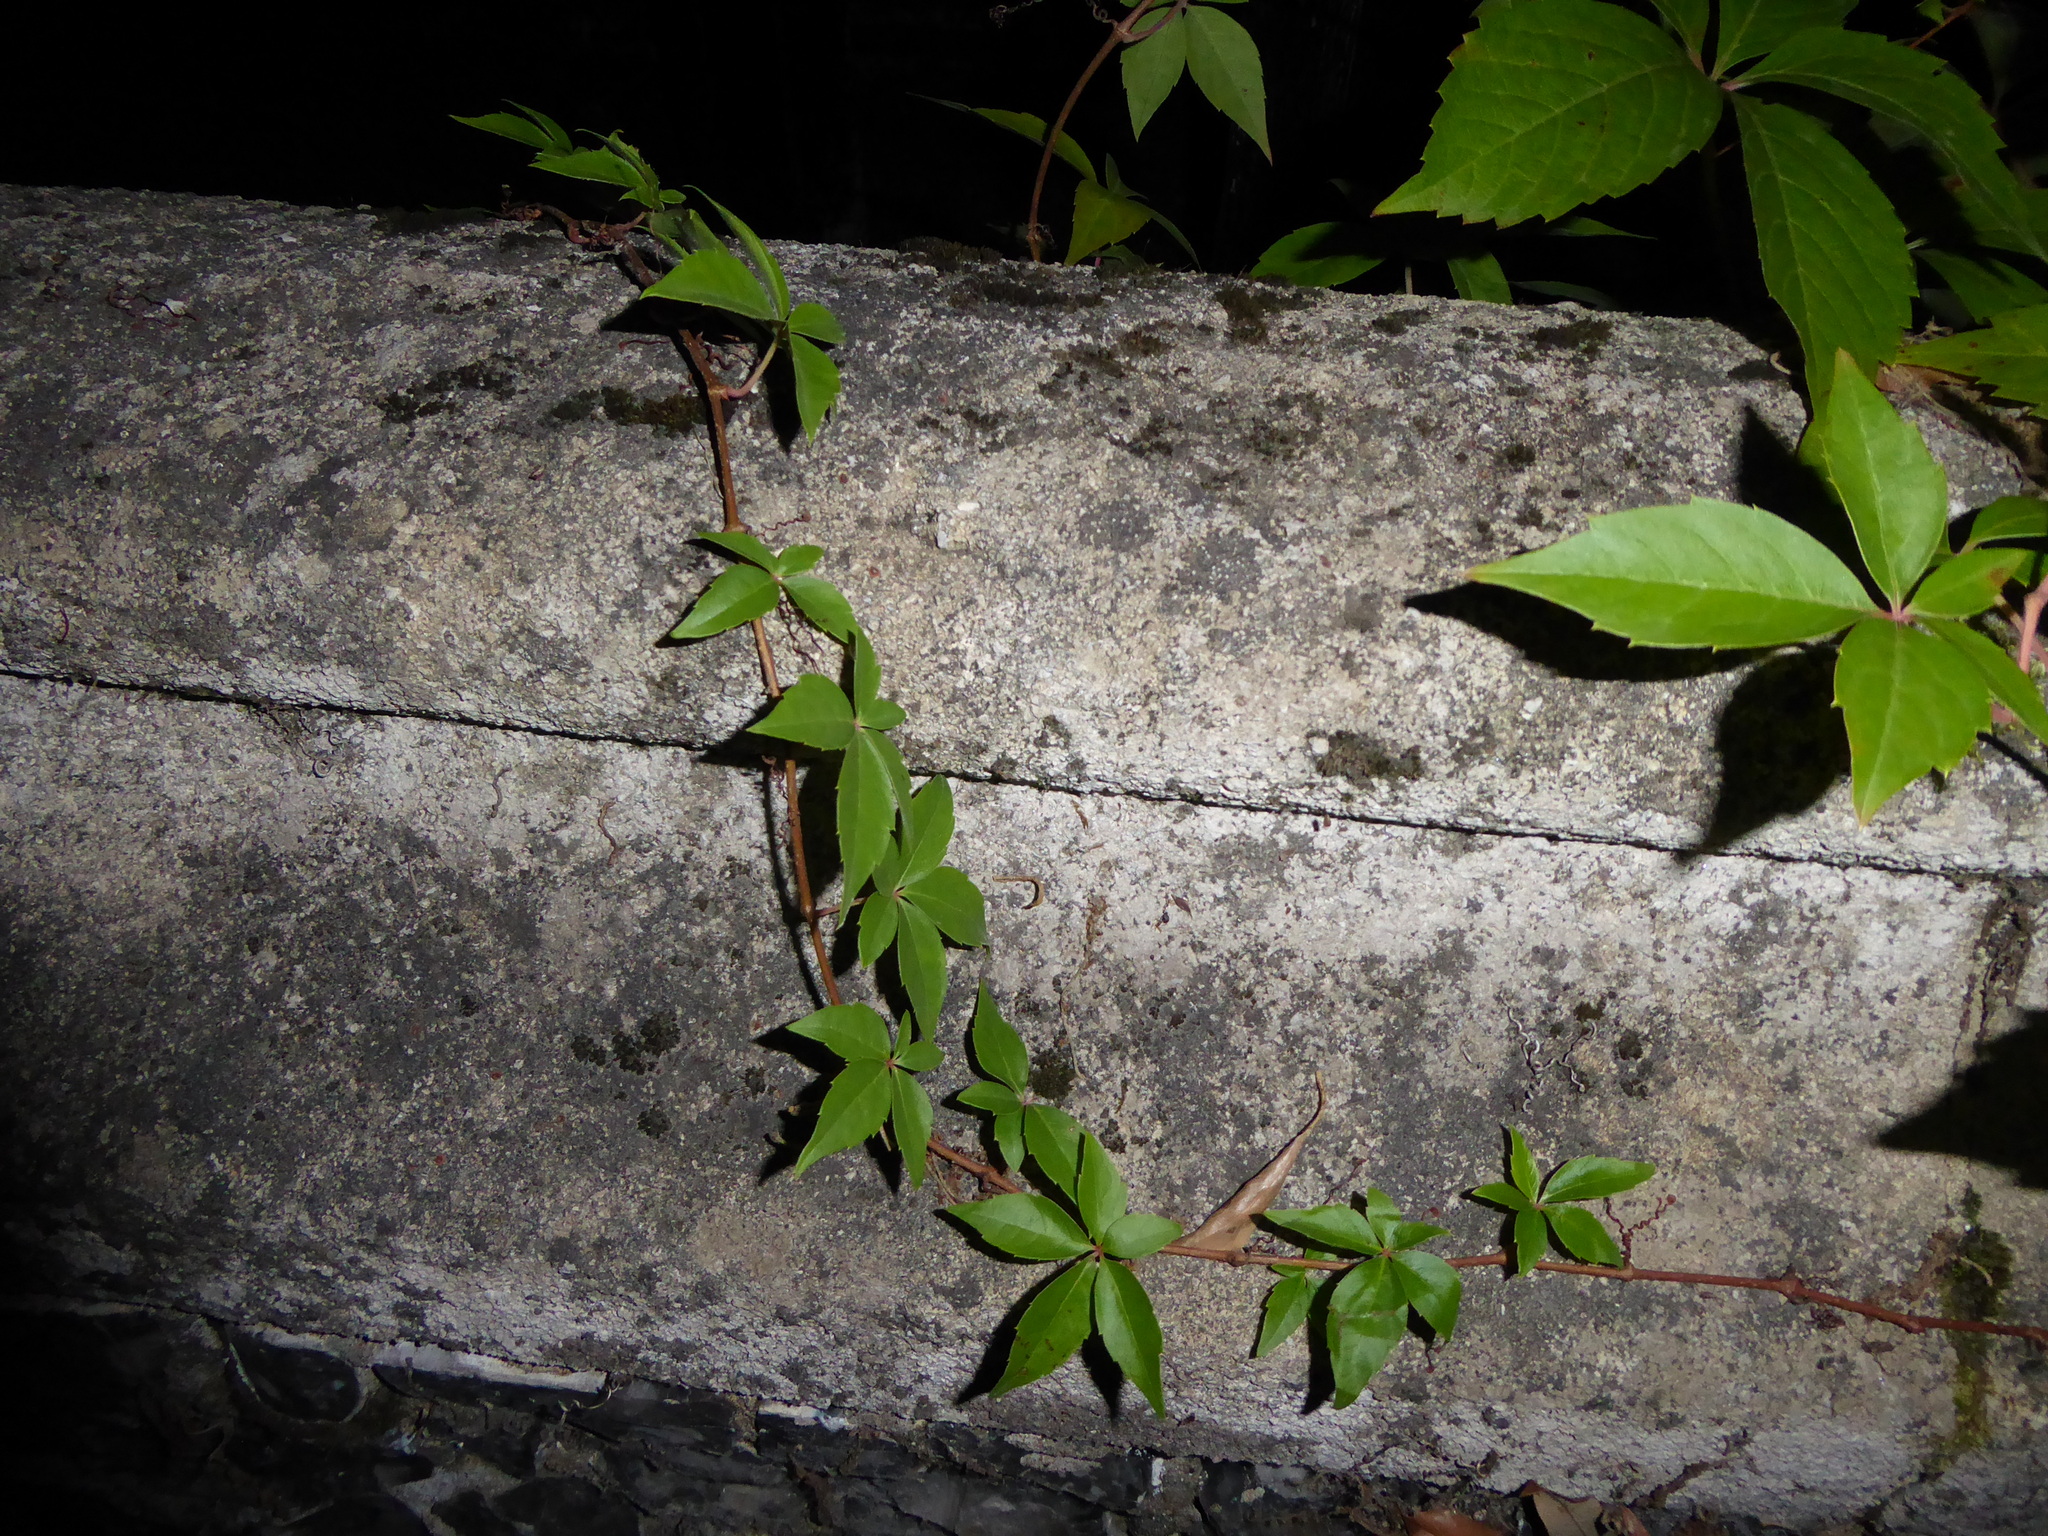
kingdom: Plantae
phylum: Tracheophyta
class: Magnoliopsida
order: Vitales
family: Vitaceae
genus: Parthenocissus
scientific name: Parthenocissus quinquefolia
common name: Virginia-creeper
